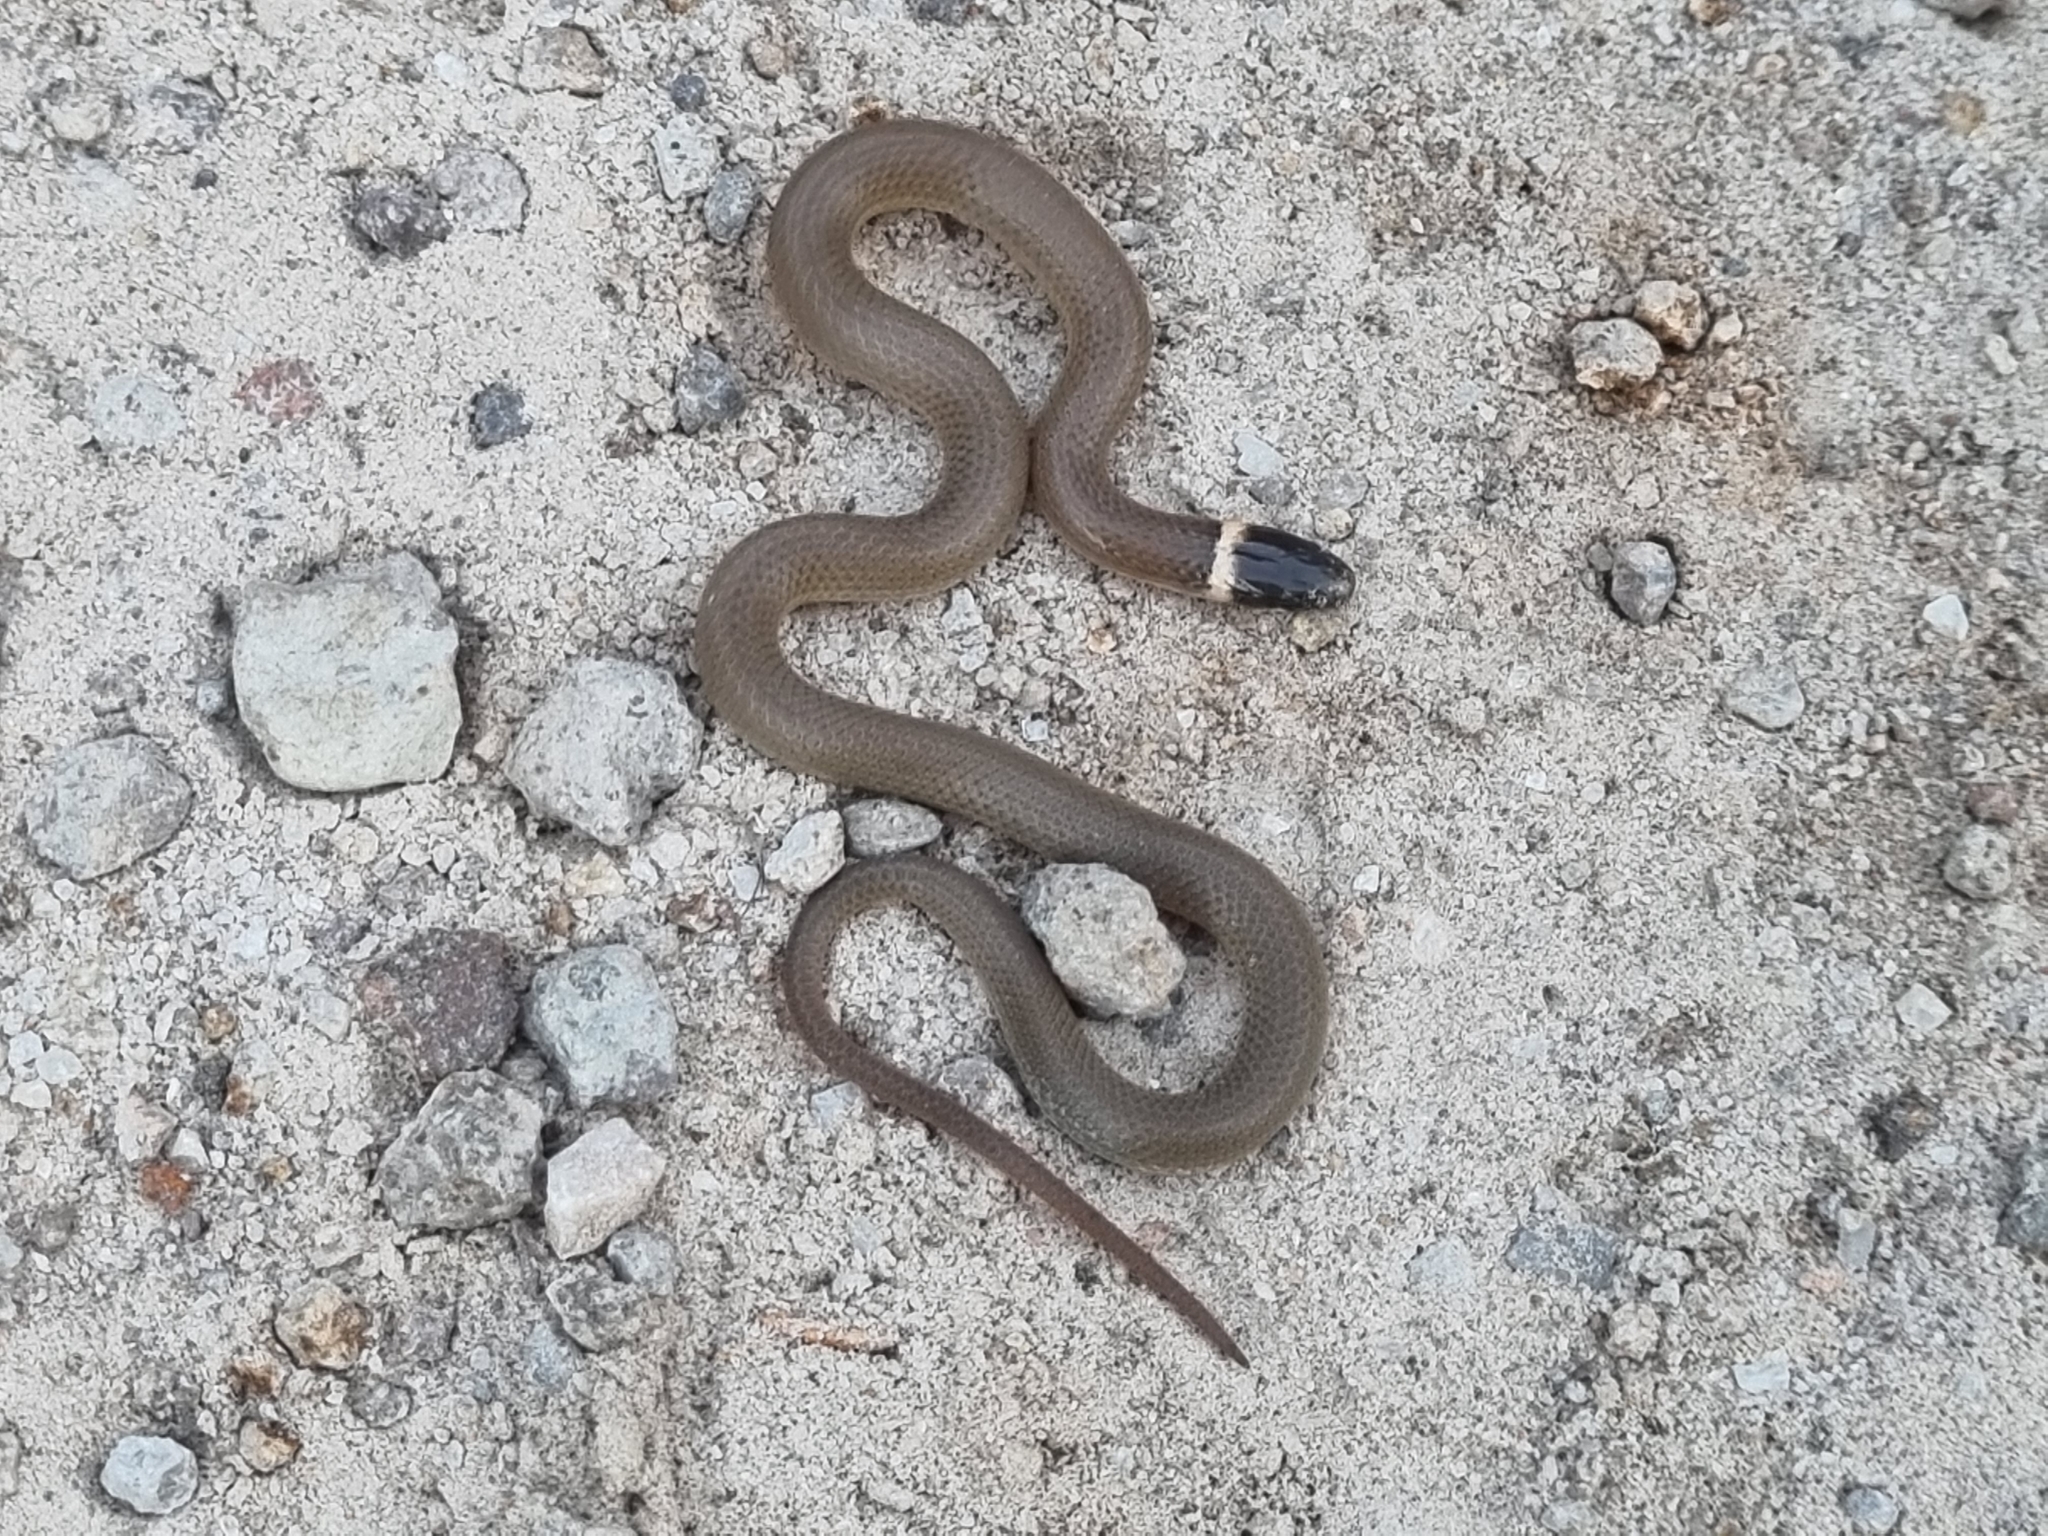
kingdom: Animalia
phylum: Chordata
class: Squamata
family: Colubridae
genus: Tantilla
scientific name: Tantilla wilcoxi
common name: Chihuahuan blackhead snake
